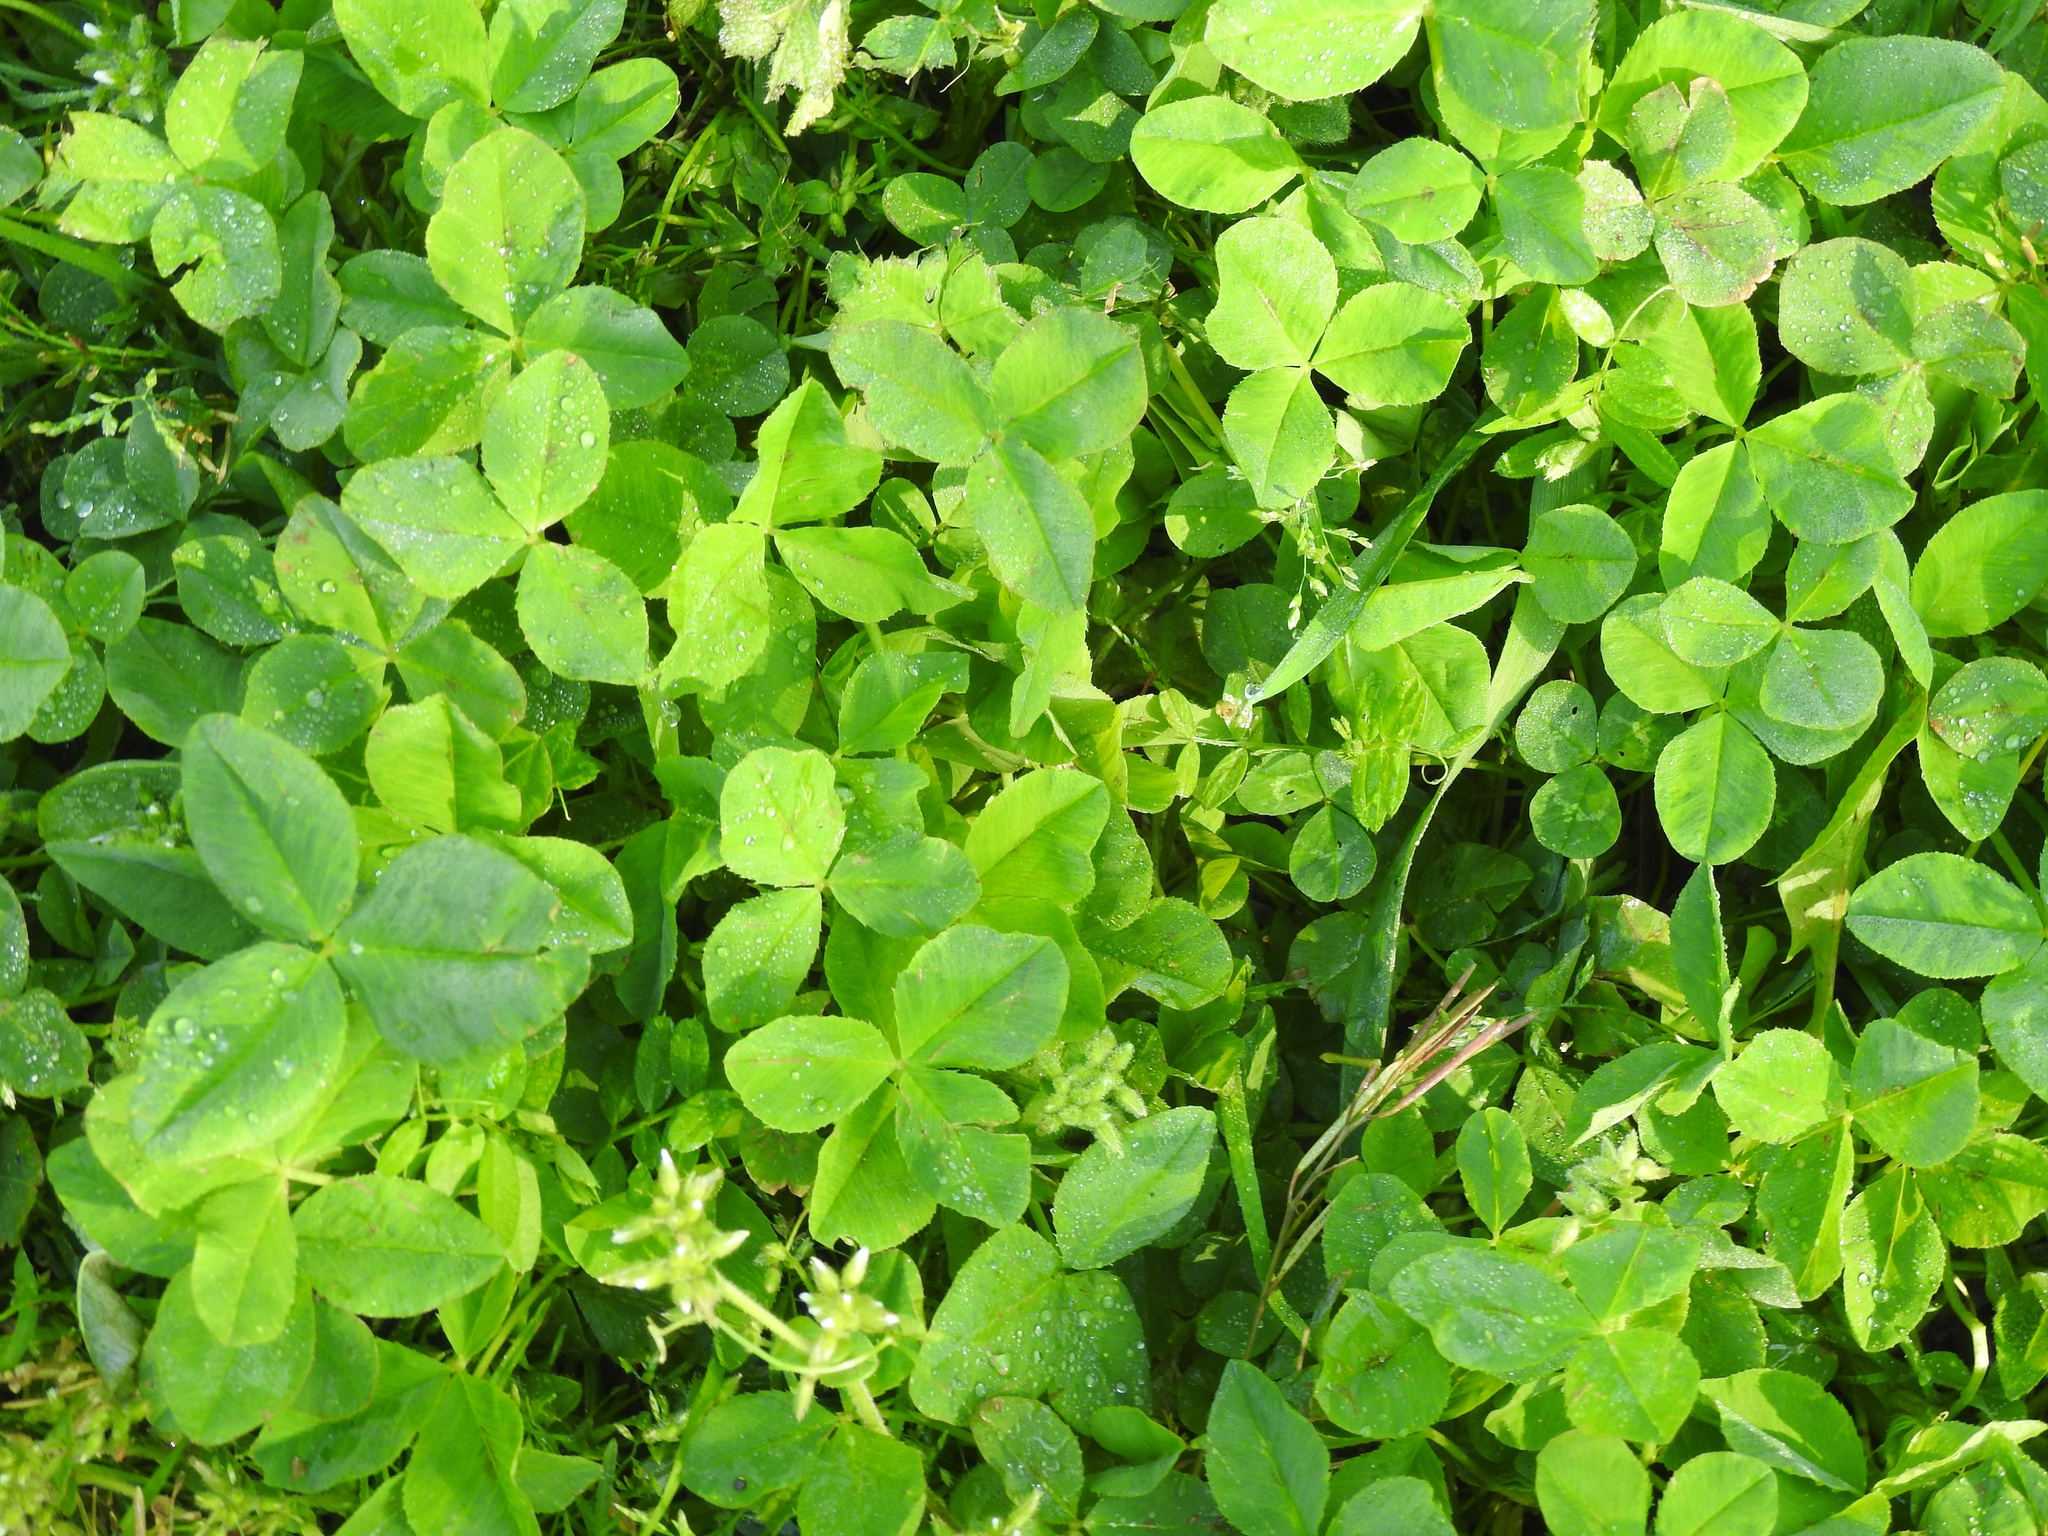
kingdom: Plantae
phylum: Tracheophyta
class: Magnoliopsida
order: Fabales
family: Fabaceae
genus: Trifolium
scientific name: Trifolium repens
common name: White clover
